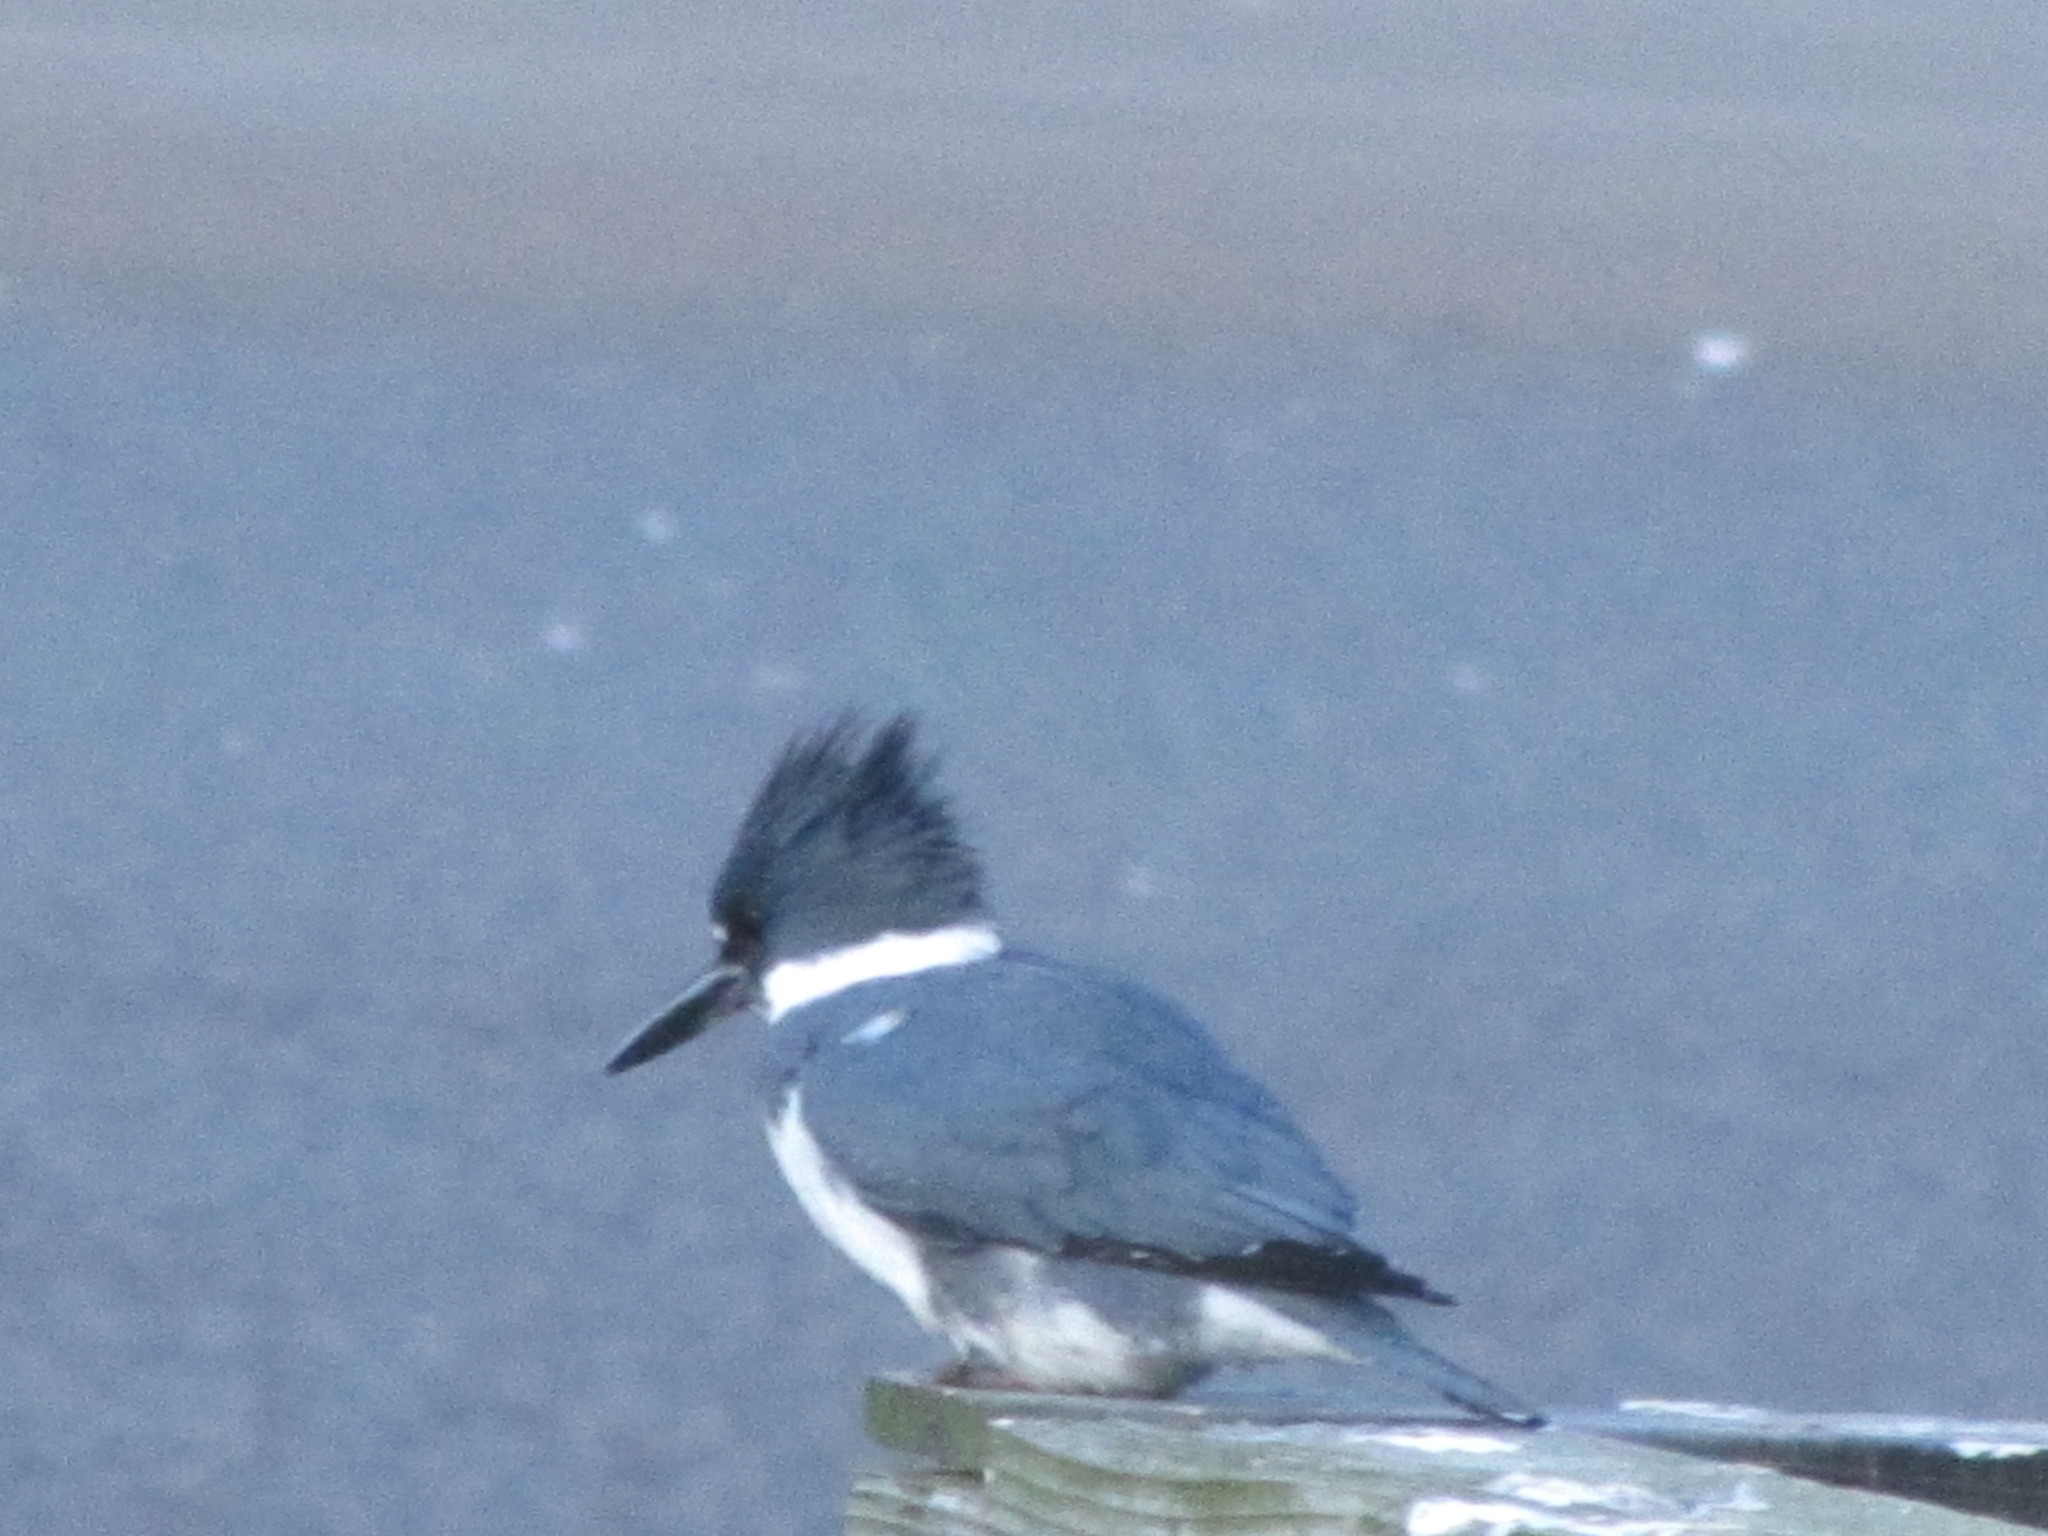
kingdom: Animalia
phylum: Chordata
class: Aves
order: Coraciiformes
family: Alcedinidae
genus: Megaceryle
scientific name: Megaceryle alcyon
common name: Belted kingfisher
